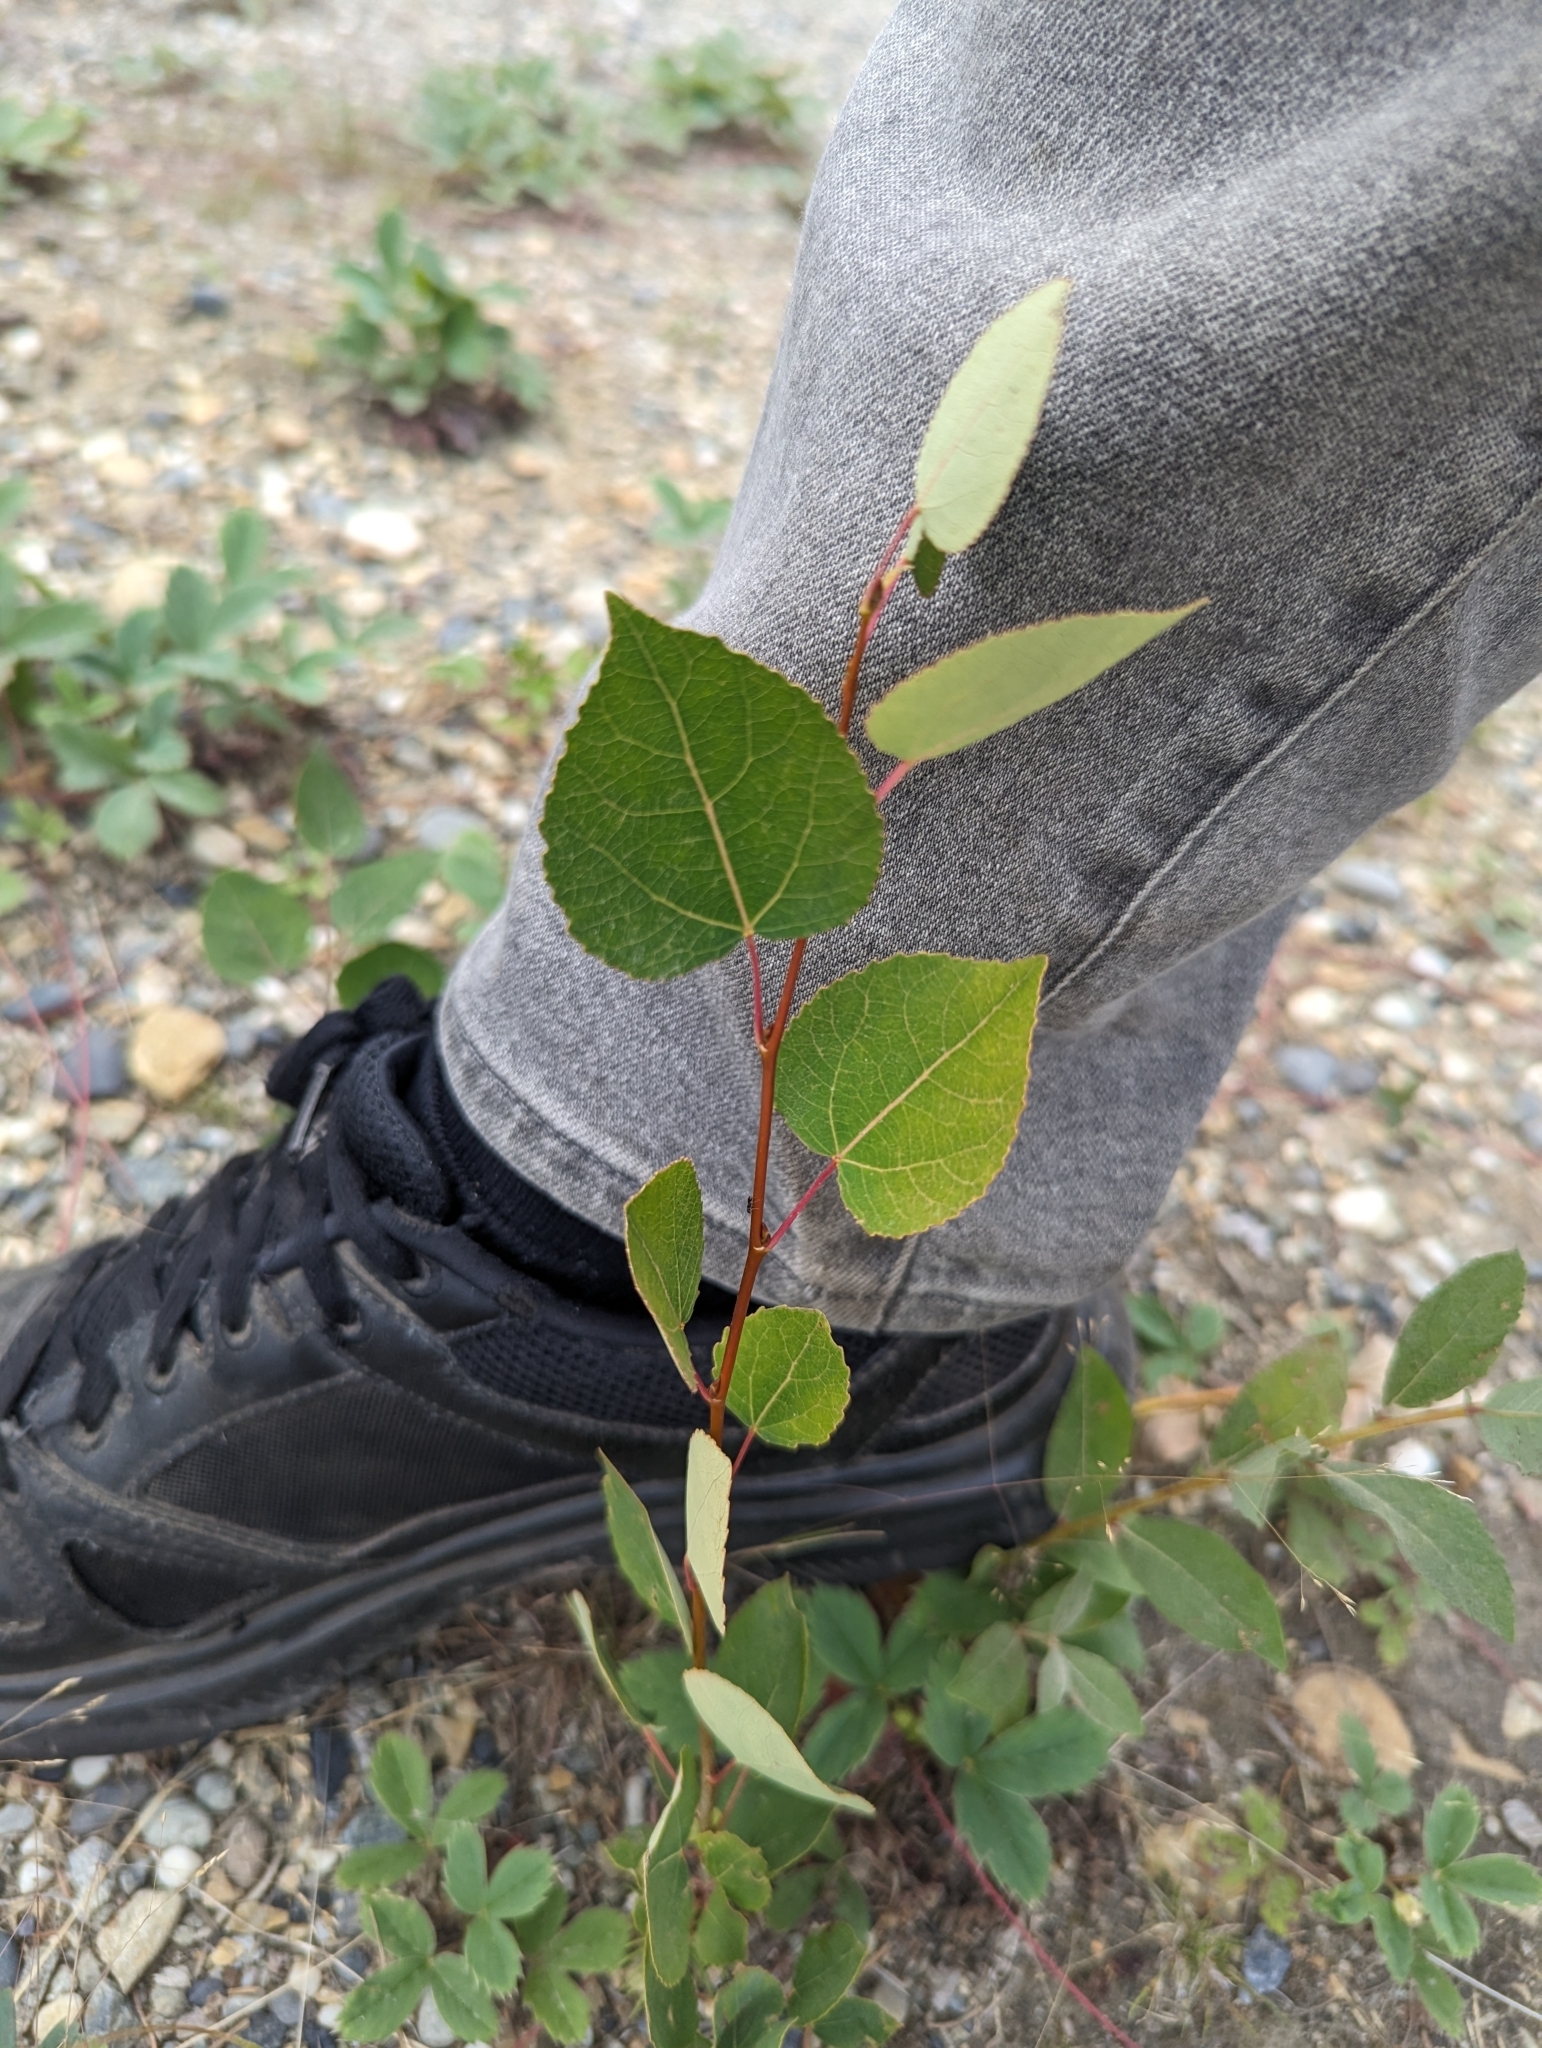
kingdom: Plantae
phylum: Tracheophyta
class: Magnoliopsida
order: Malpighiales
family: Salicaceae
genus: Populus
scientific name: Populus tremuloides
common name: Quaking aspen
